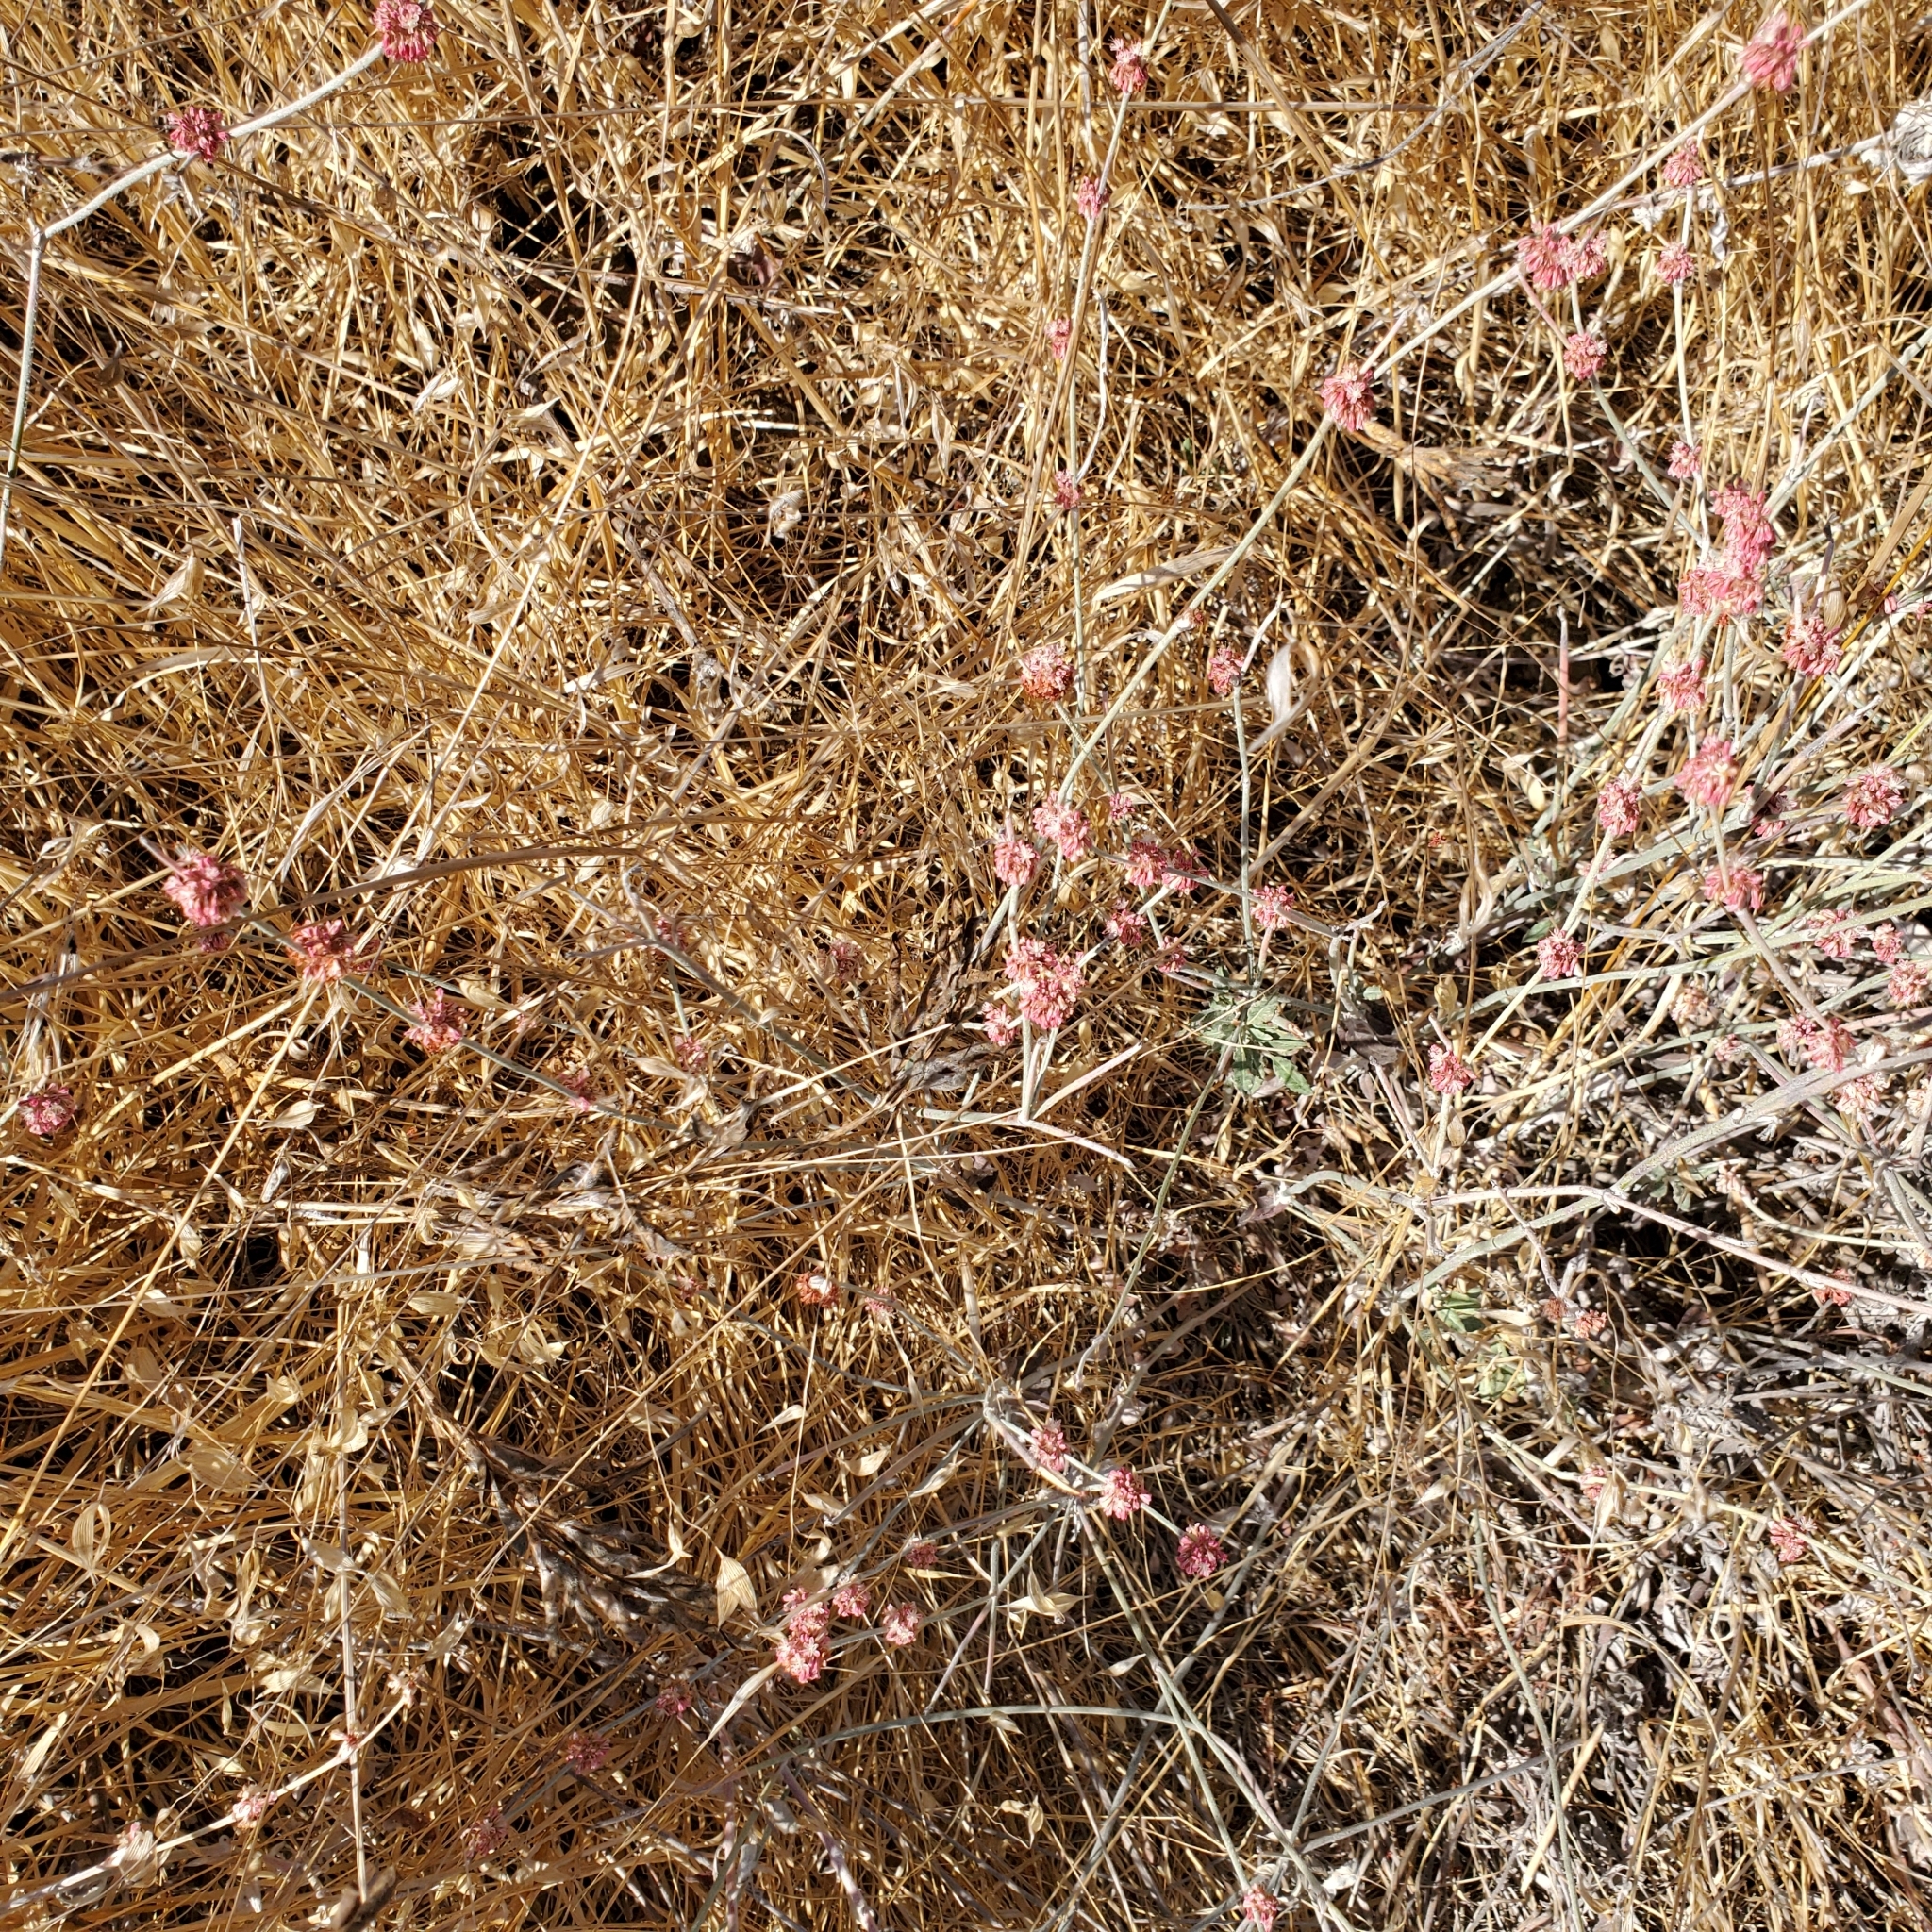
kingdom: Plantae
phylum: Tracheophyta
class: Magnoliopsida
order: Caryophyllales
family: Polygonaceae
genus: Eriogonum
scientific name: Eriogonum elongatum
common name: Long-stem wild buckwheat
